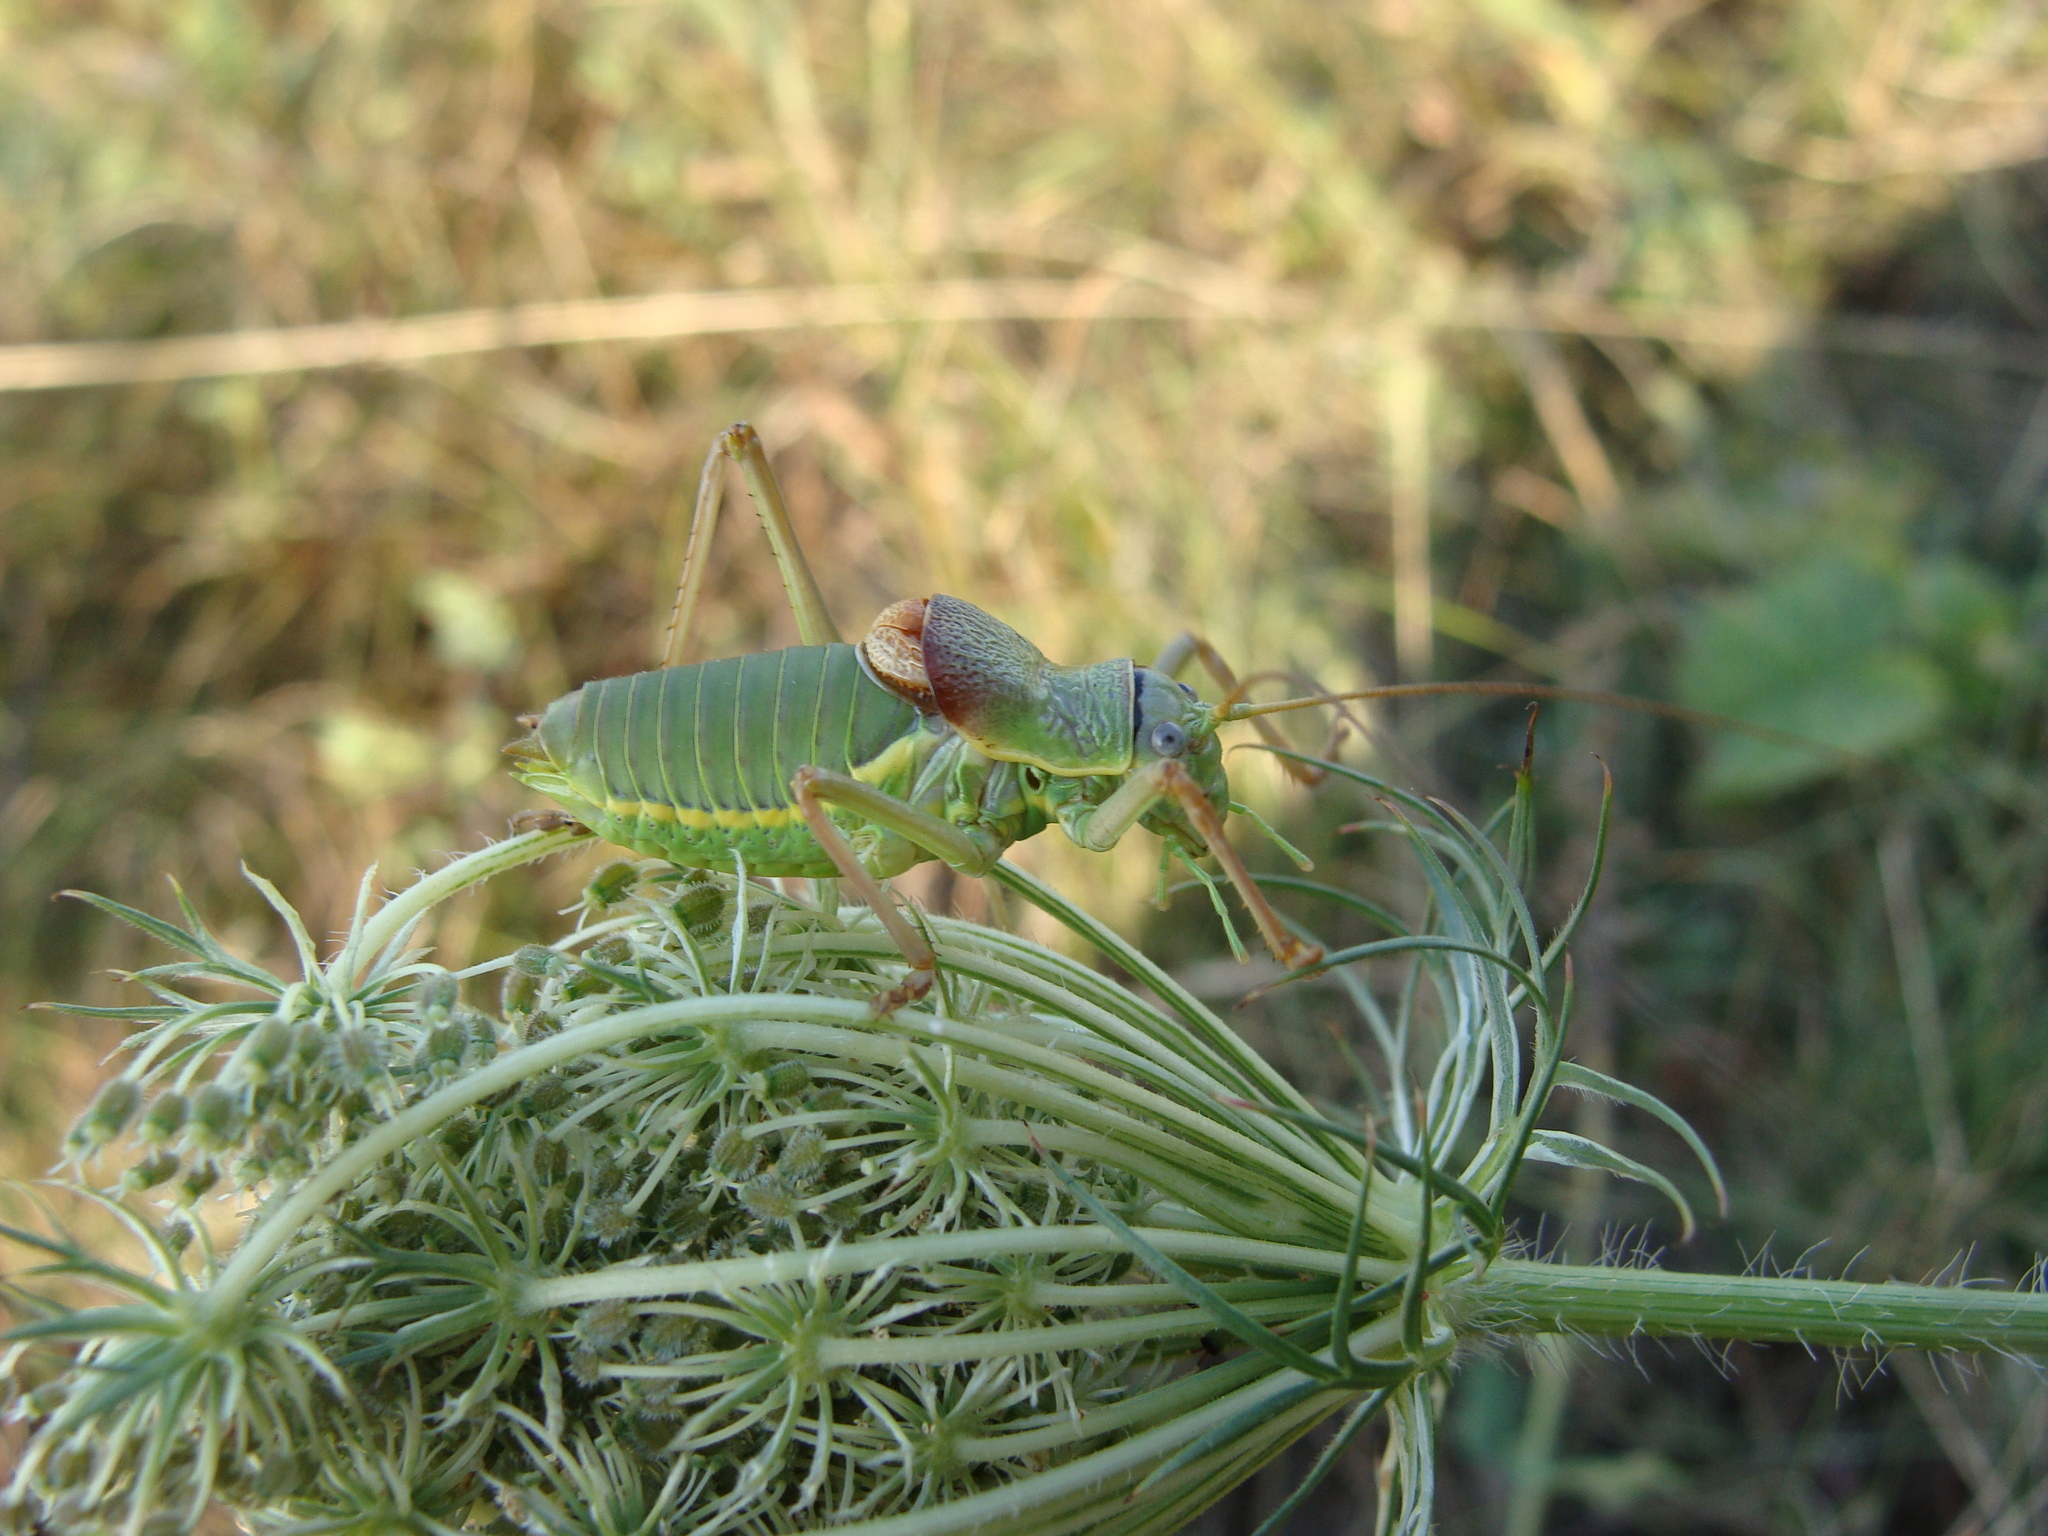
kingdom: Animalia
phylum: Arthropoda
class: Insecta
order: Orthoptera
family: Tettigoniidae
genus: Ephippiger
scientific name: Ephippiger ephippiger
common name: Eastern saddle bush-cricket
